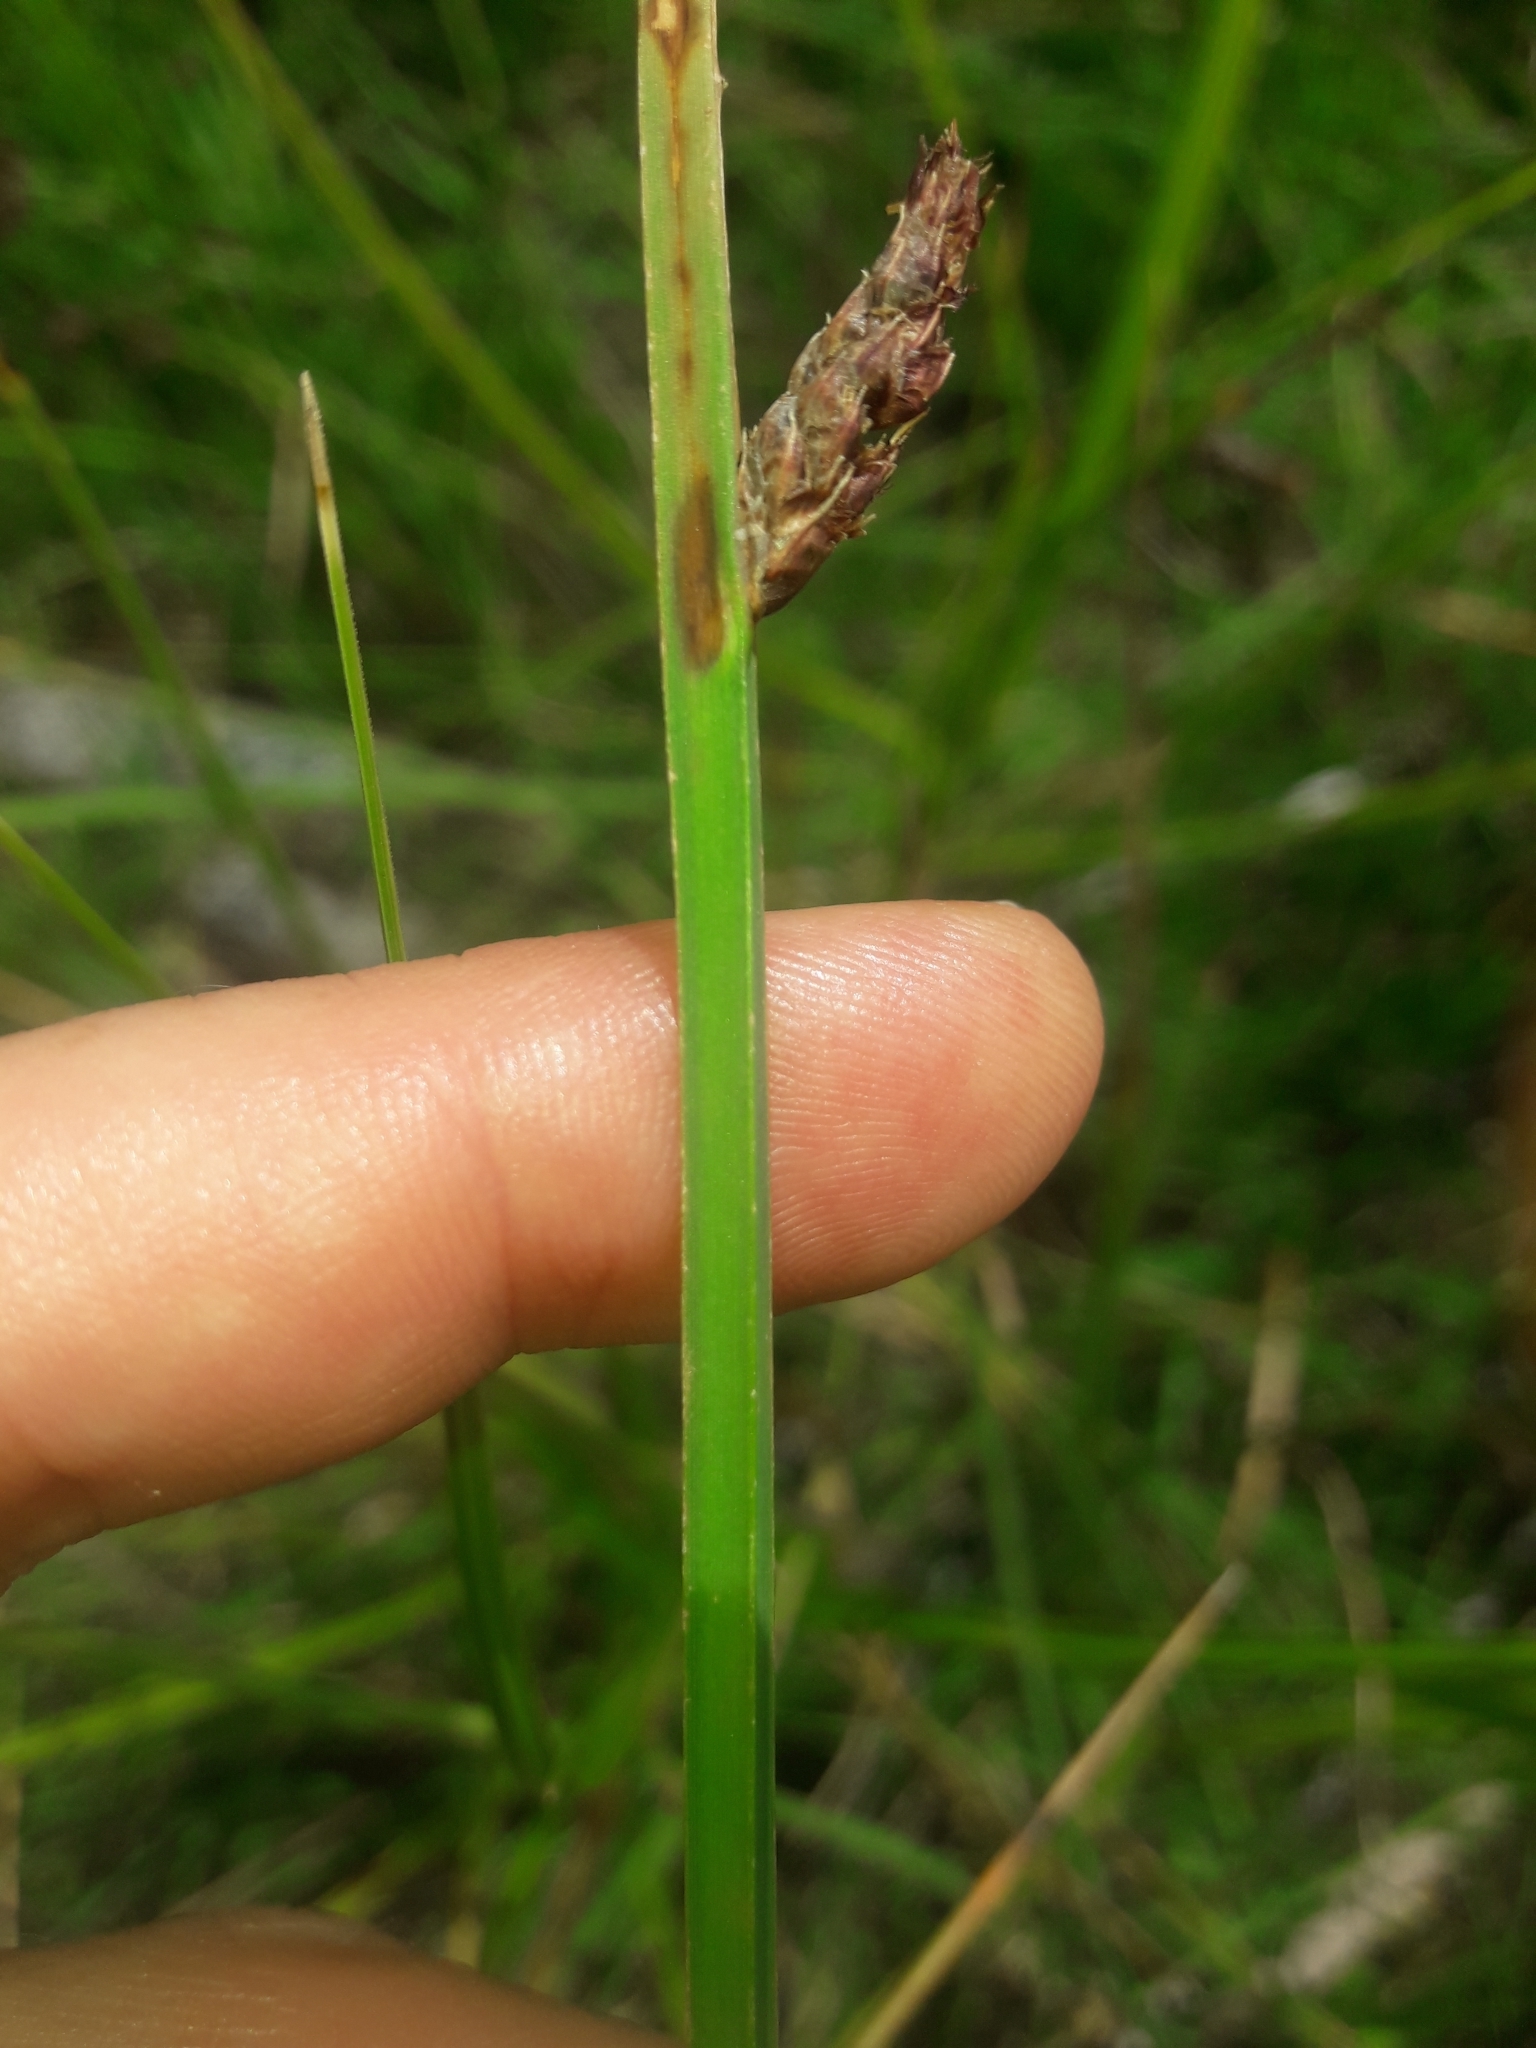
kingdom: Plantae
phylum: Tracheophyta
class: Liliopsida
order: Poales
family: Cyperaceae
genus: Schoenoplectus
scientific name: Schoenoplectus pungens
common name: Sharp club-rush
